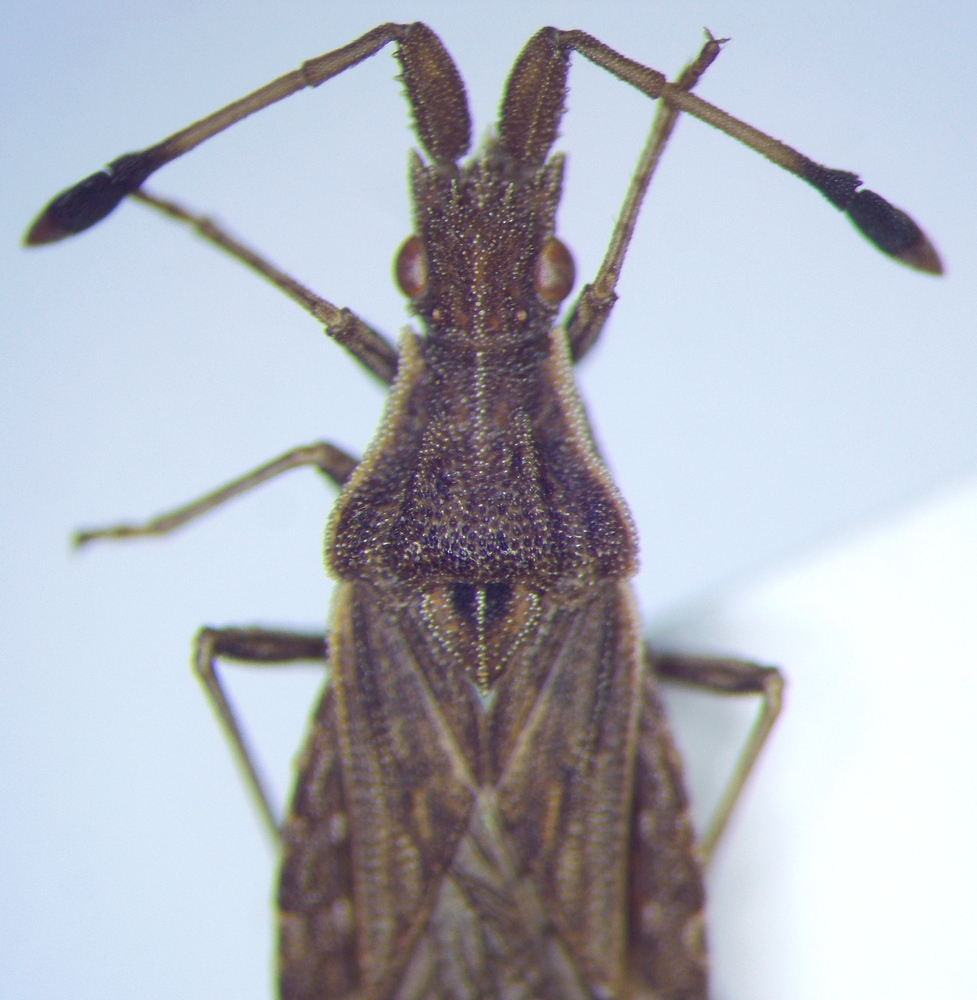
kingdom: Animalia
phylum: Arthropoda
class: Insecta
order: Hemiptera
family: Coreidae
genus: Spathocera
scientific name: Spathocera lobata
